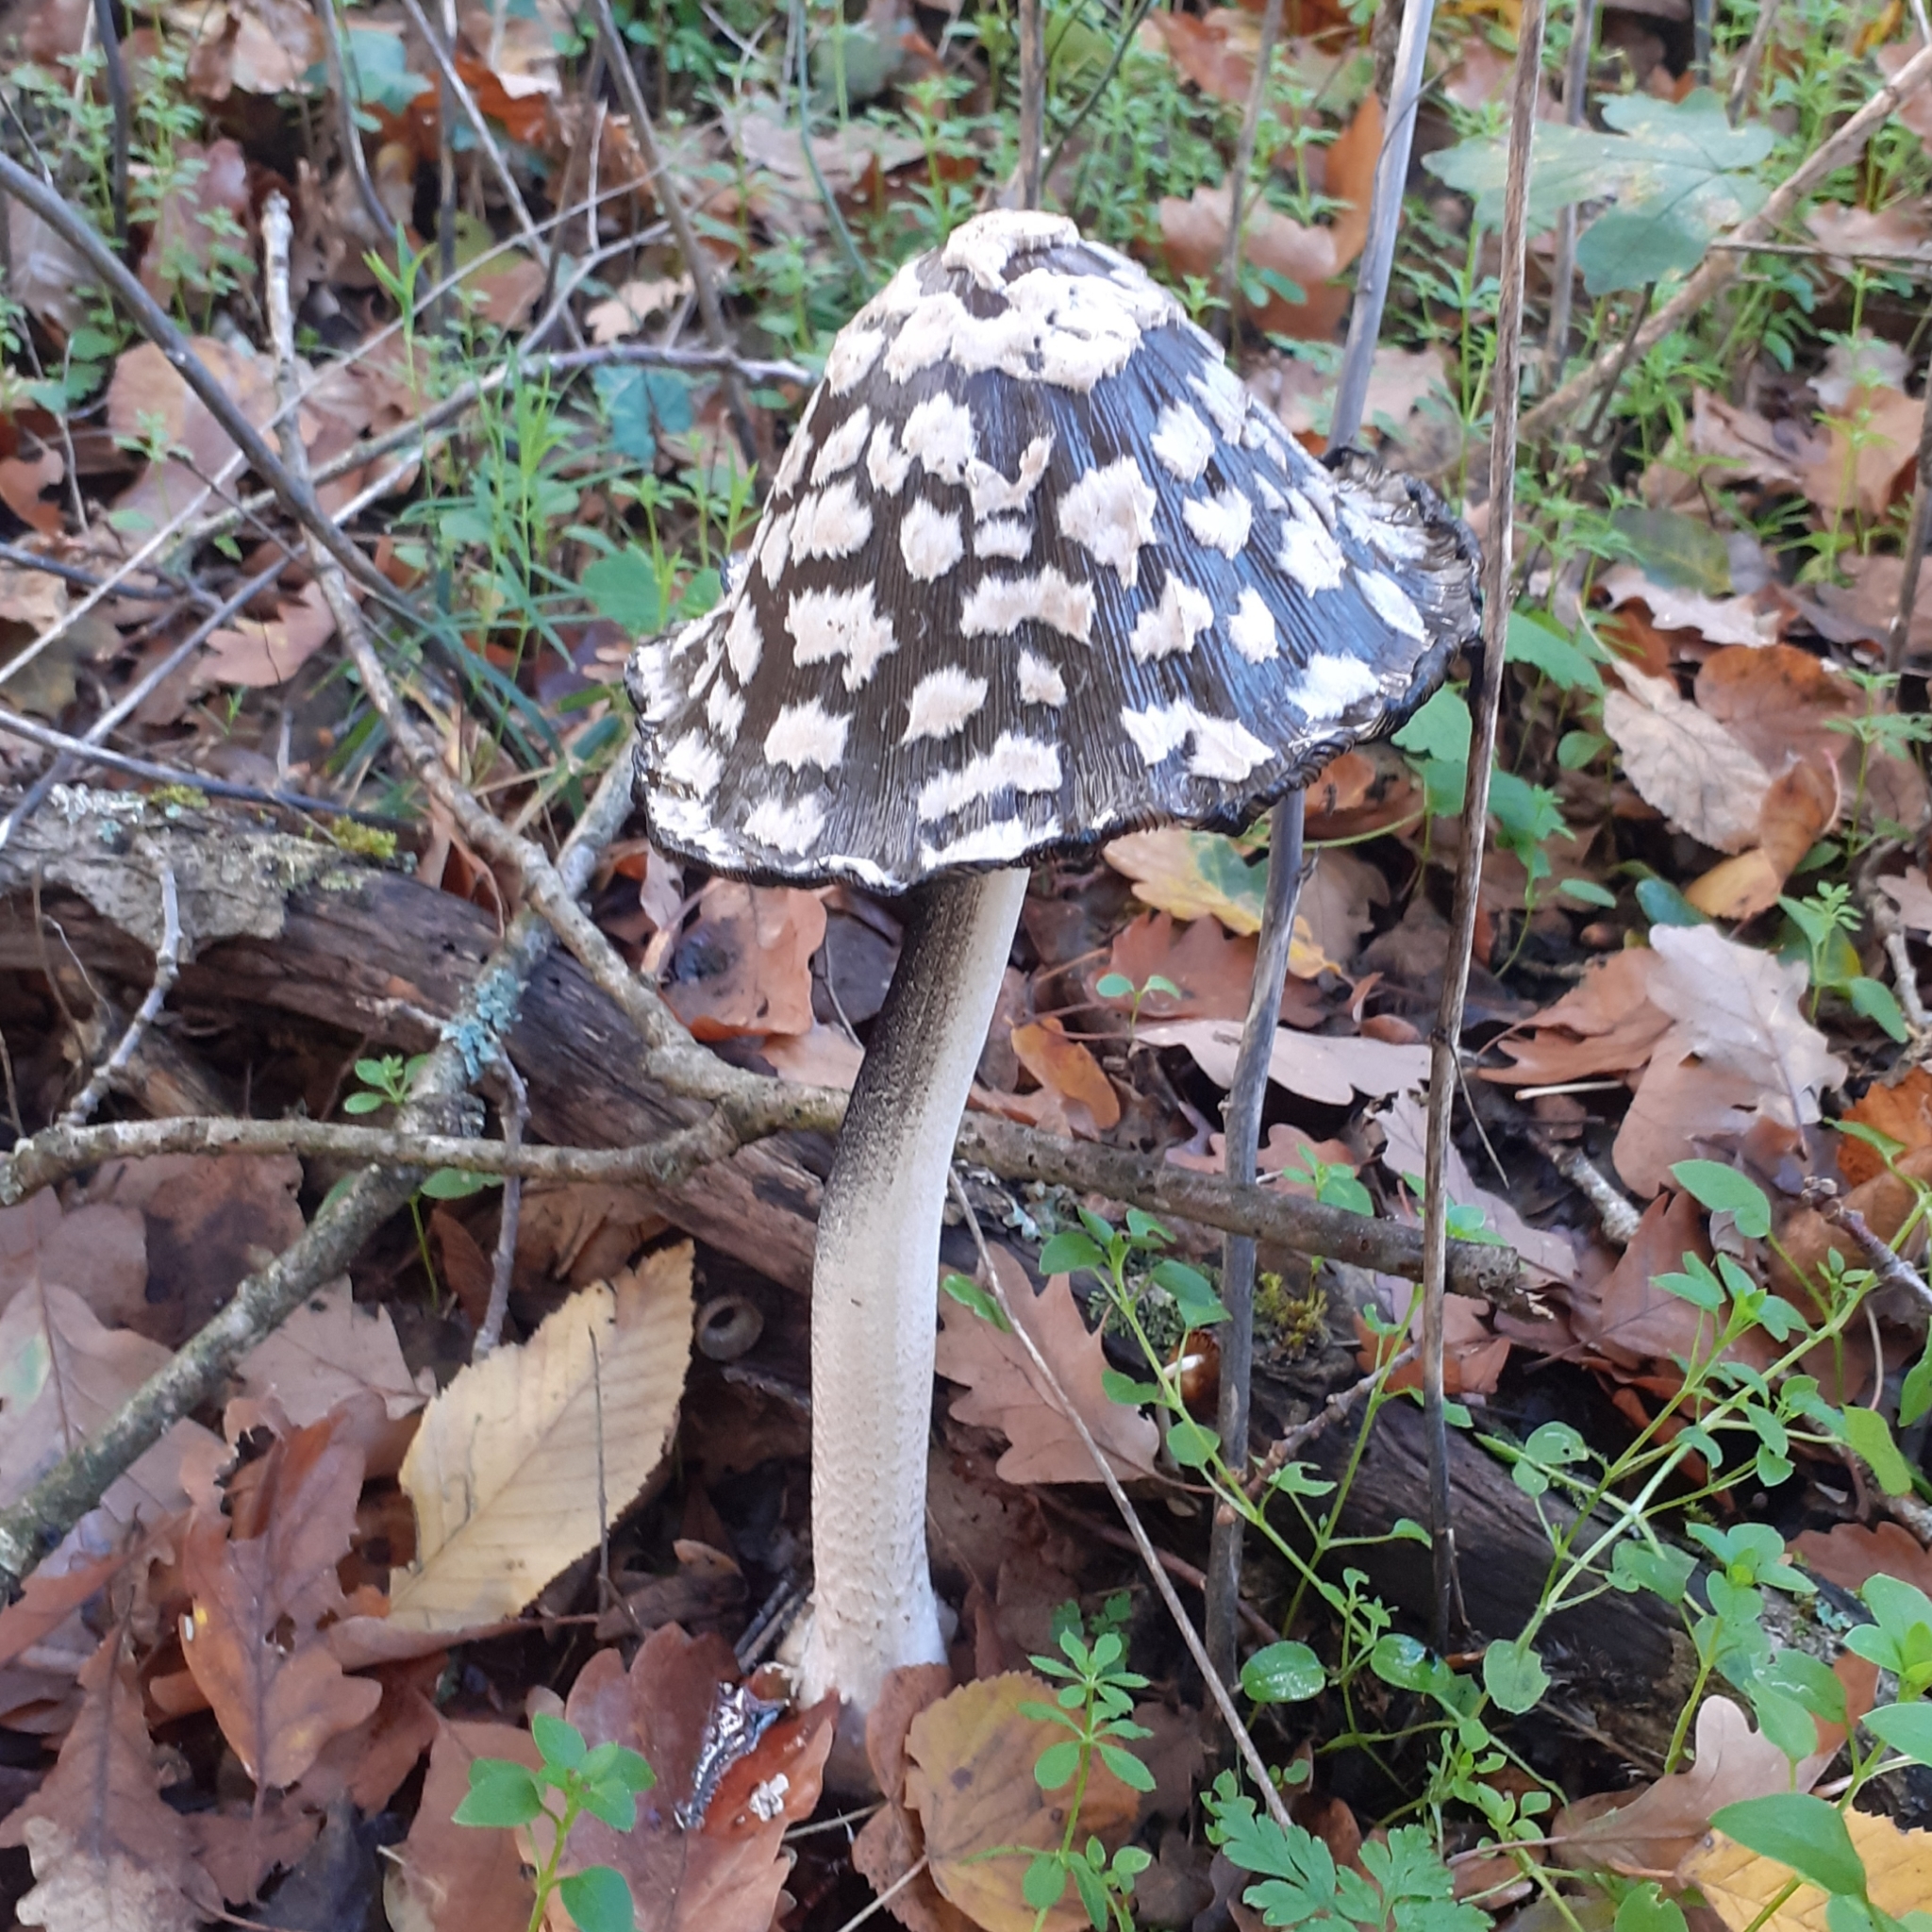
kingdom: Fungi
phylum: Basidiomycota
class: Agaricomycetes
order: Agaricales
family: Psathyrellaceae
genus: Coprinopsis
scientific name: Coprinopsis picacea
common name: Magpie inkcap
